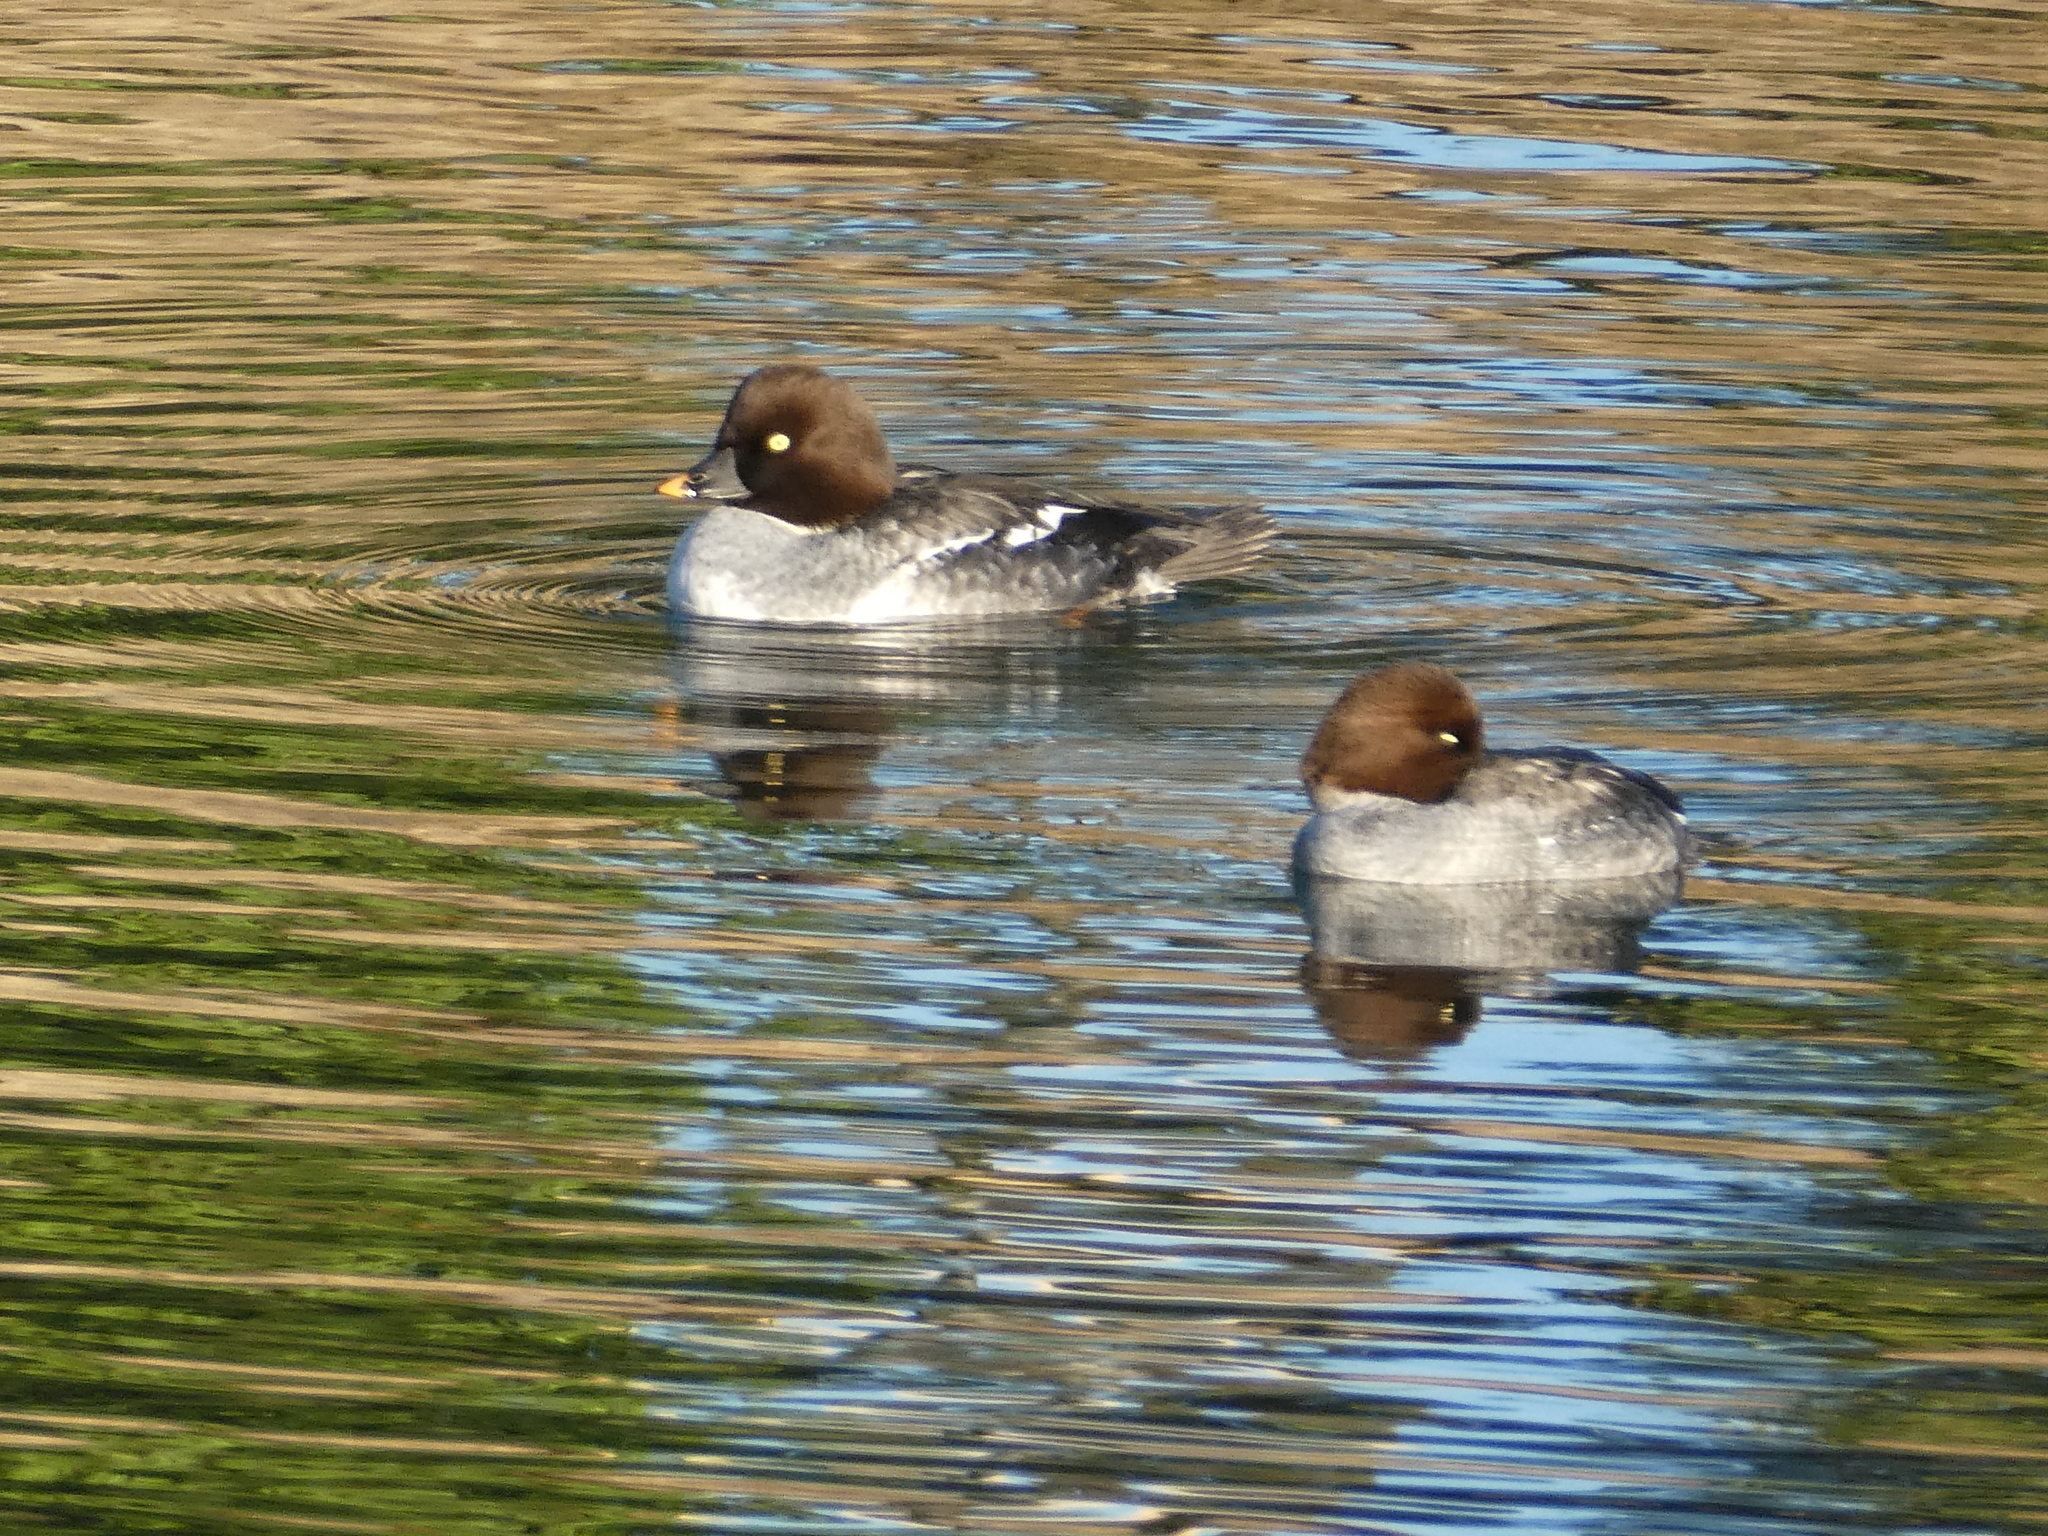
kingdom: Animalia
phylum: Chordata
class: Aves
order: Anseriformes
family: Anatidae
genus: Bucephala
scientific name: Bucephala clangula
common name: Common goldeneye
